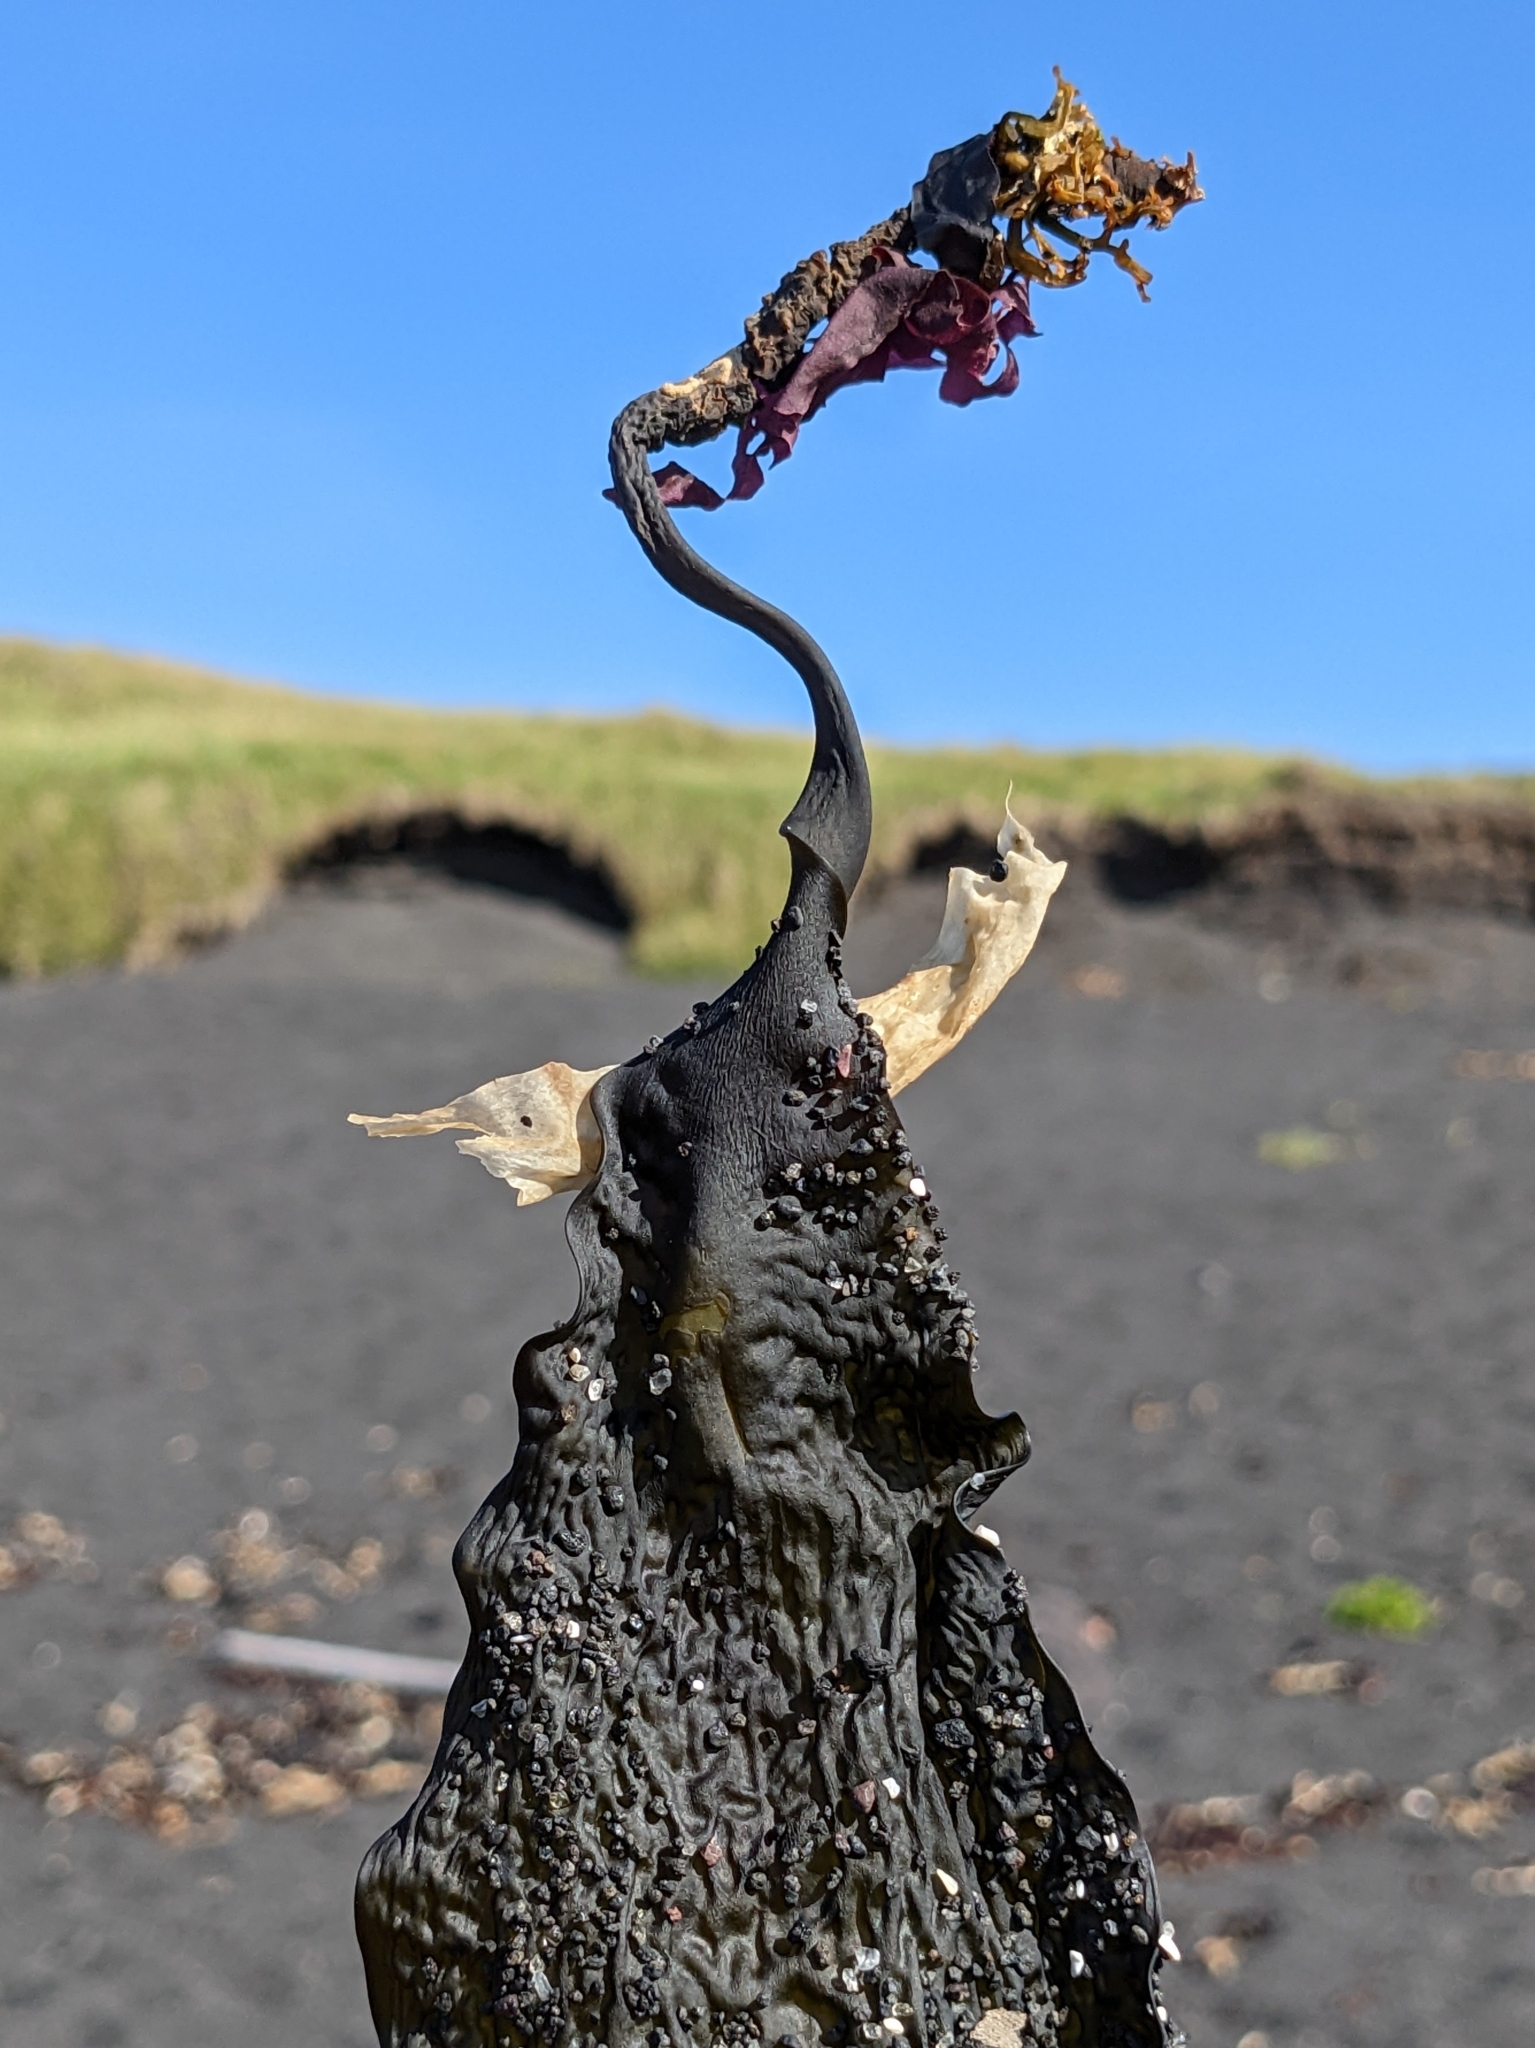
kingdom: Chromista
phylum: Ochrophyta
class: Phaeophyceae
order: Laminariales
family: Laminariaceae
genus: Saccharina
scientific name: Saccharina latissima
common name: Poor man's weather glass
